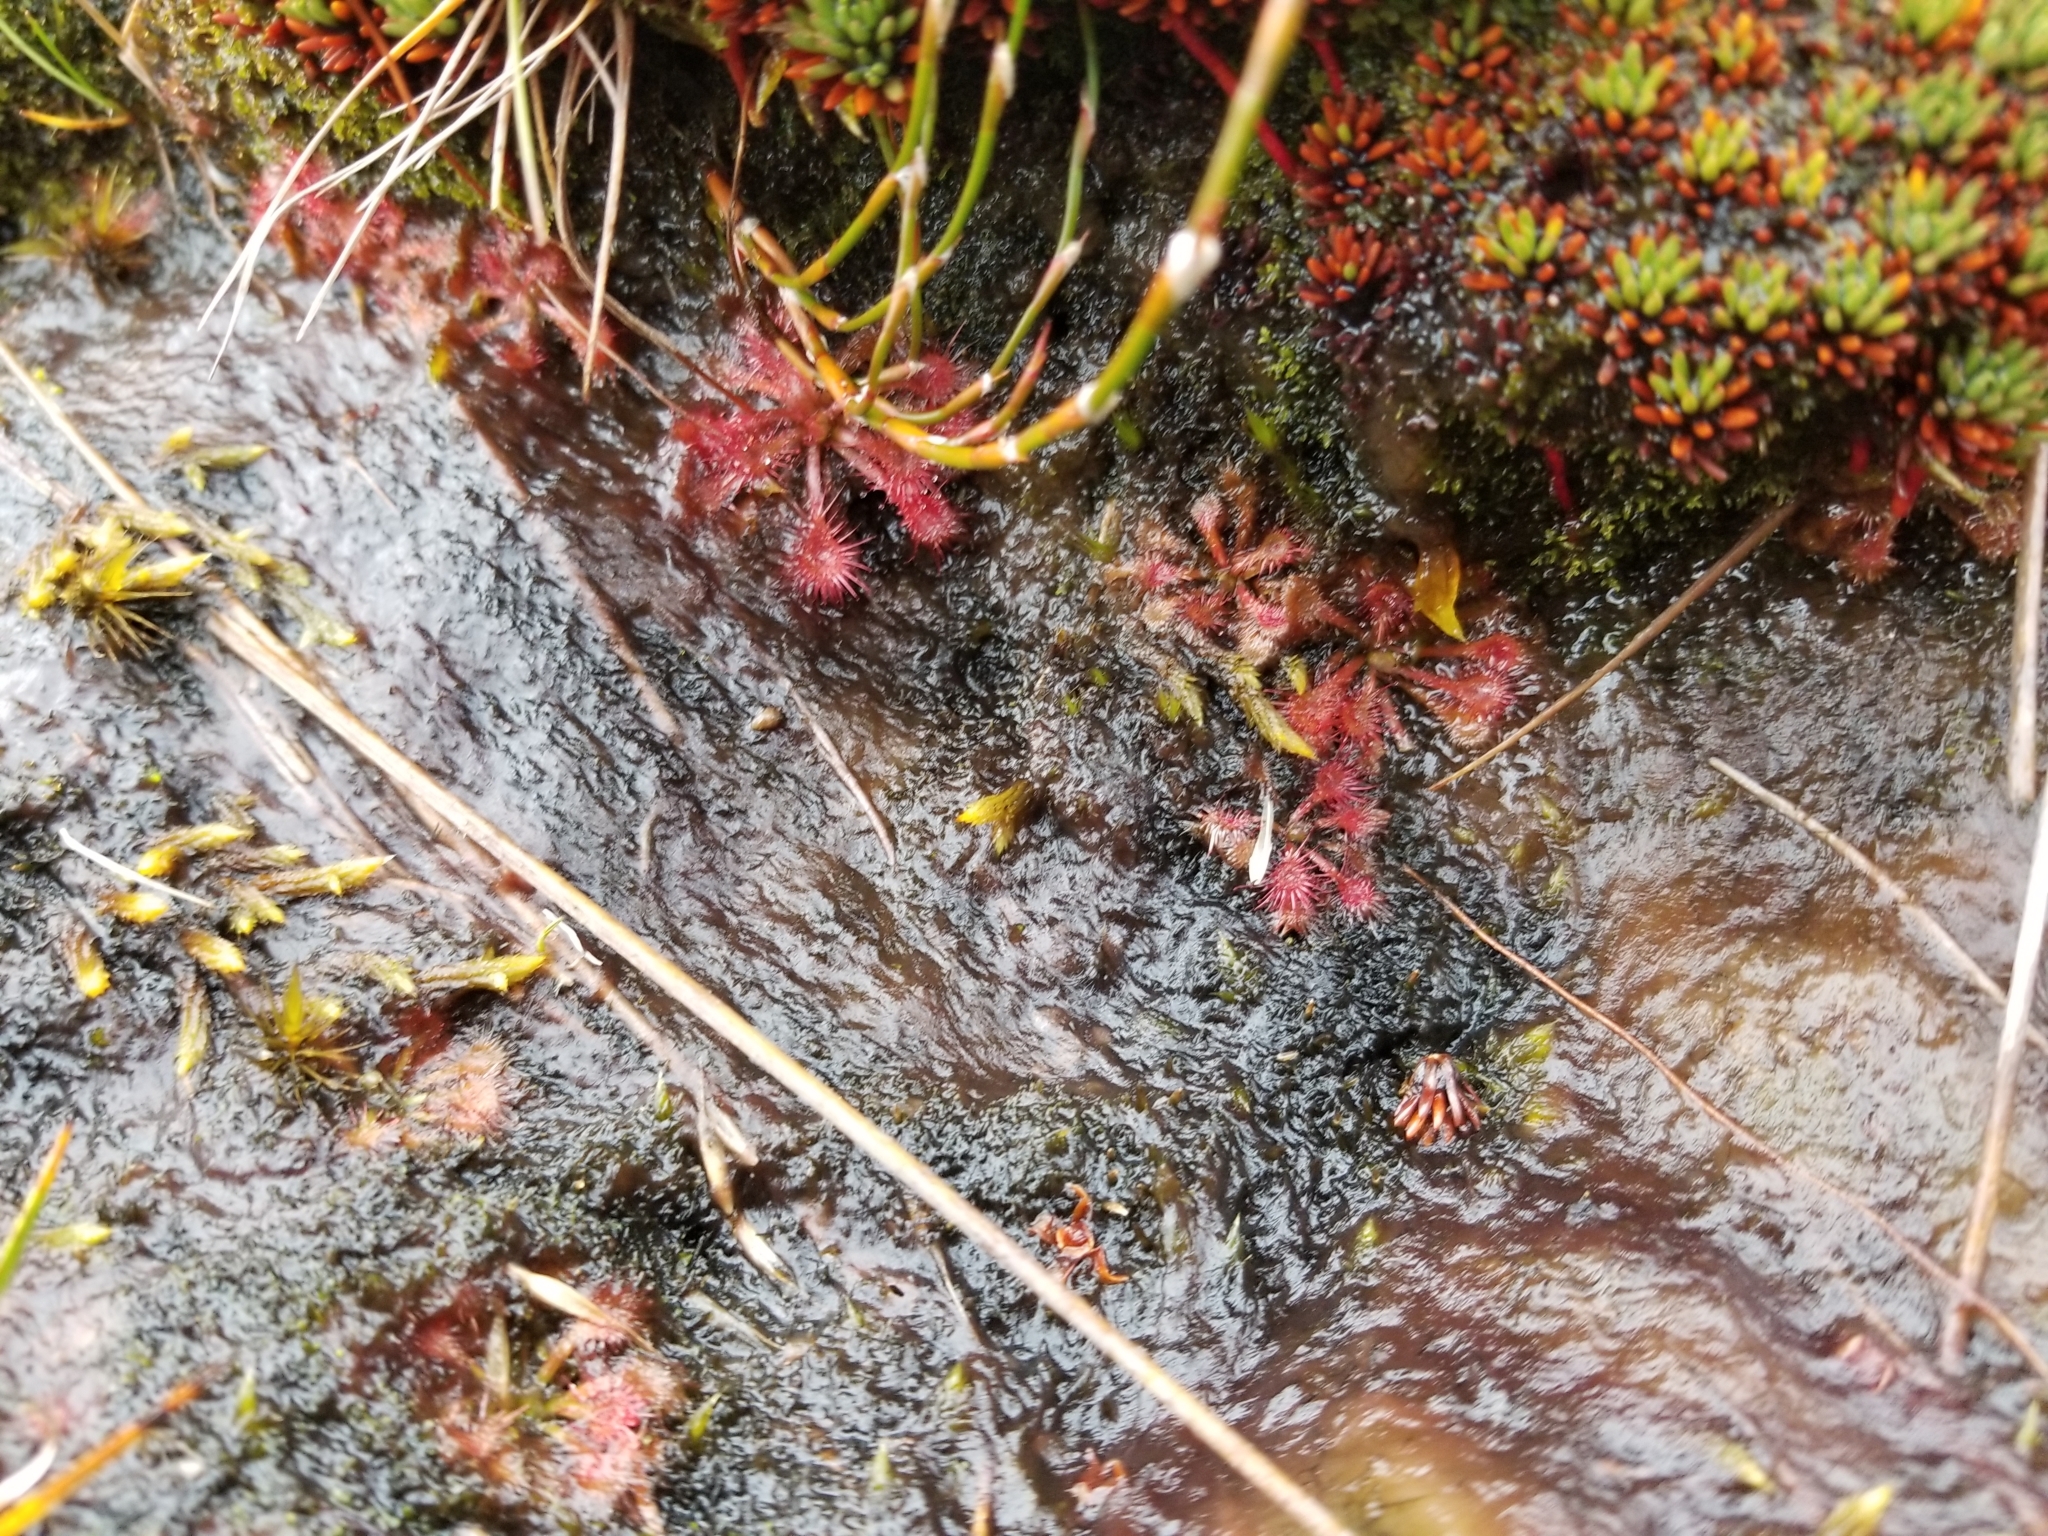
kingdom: Plantae
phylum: Tracheophyta
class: Magnoliopsida
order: Caryophyllales
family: Droseraceae
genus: Drosera
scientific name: Drosera spatulata
